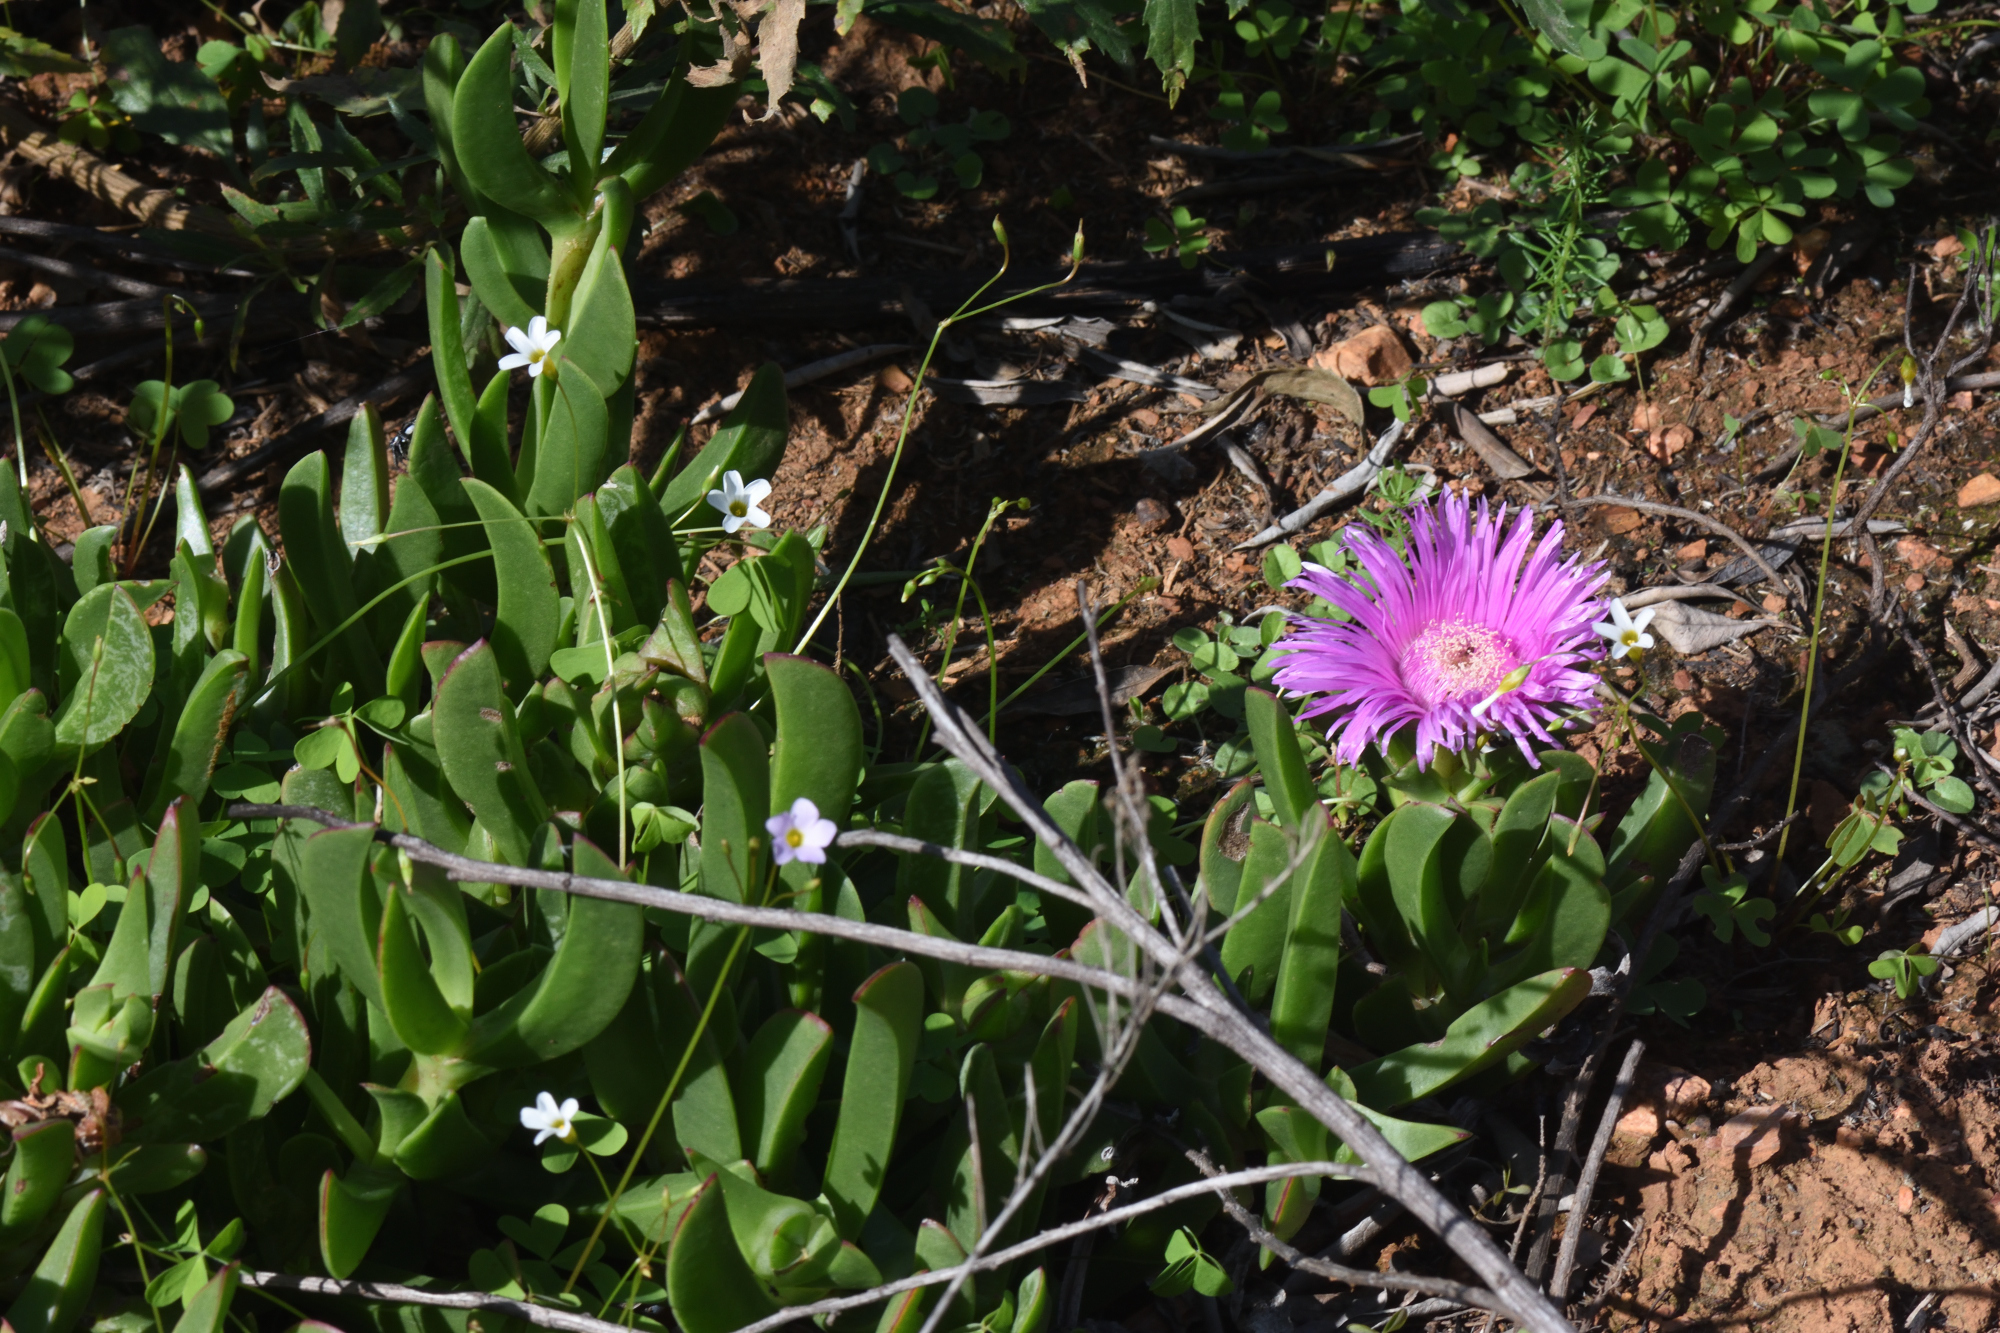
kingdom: Plantae
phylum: Tracheophyta
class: Magnoliopsida
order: Caryophyllales
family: Aizoaceae
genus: Carpobrotus
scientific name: Carpobrotus deliciosus
